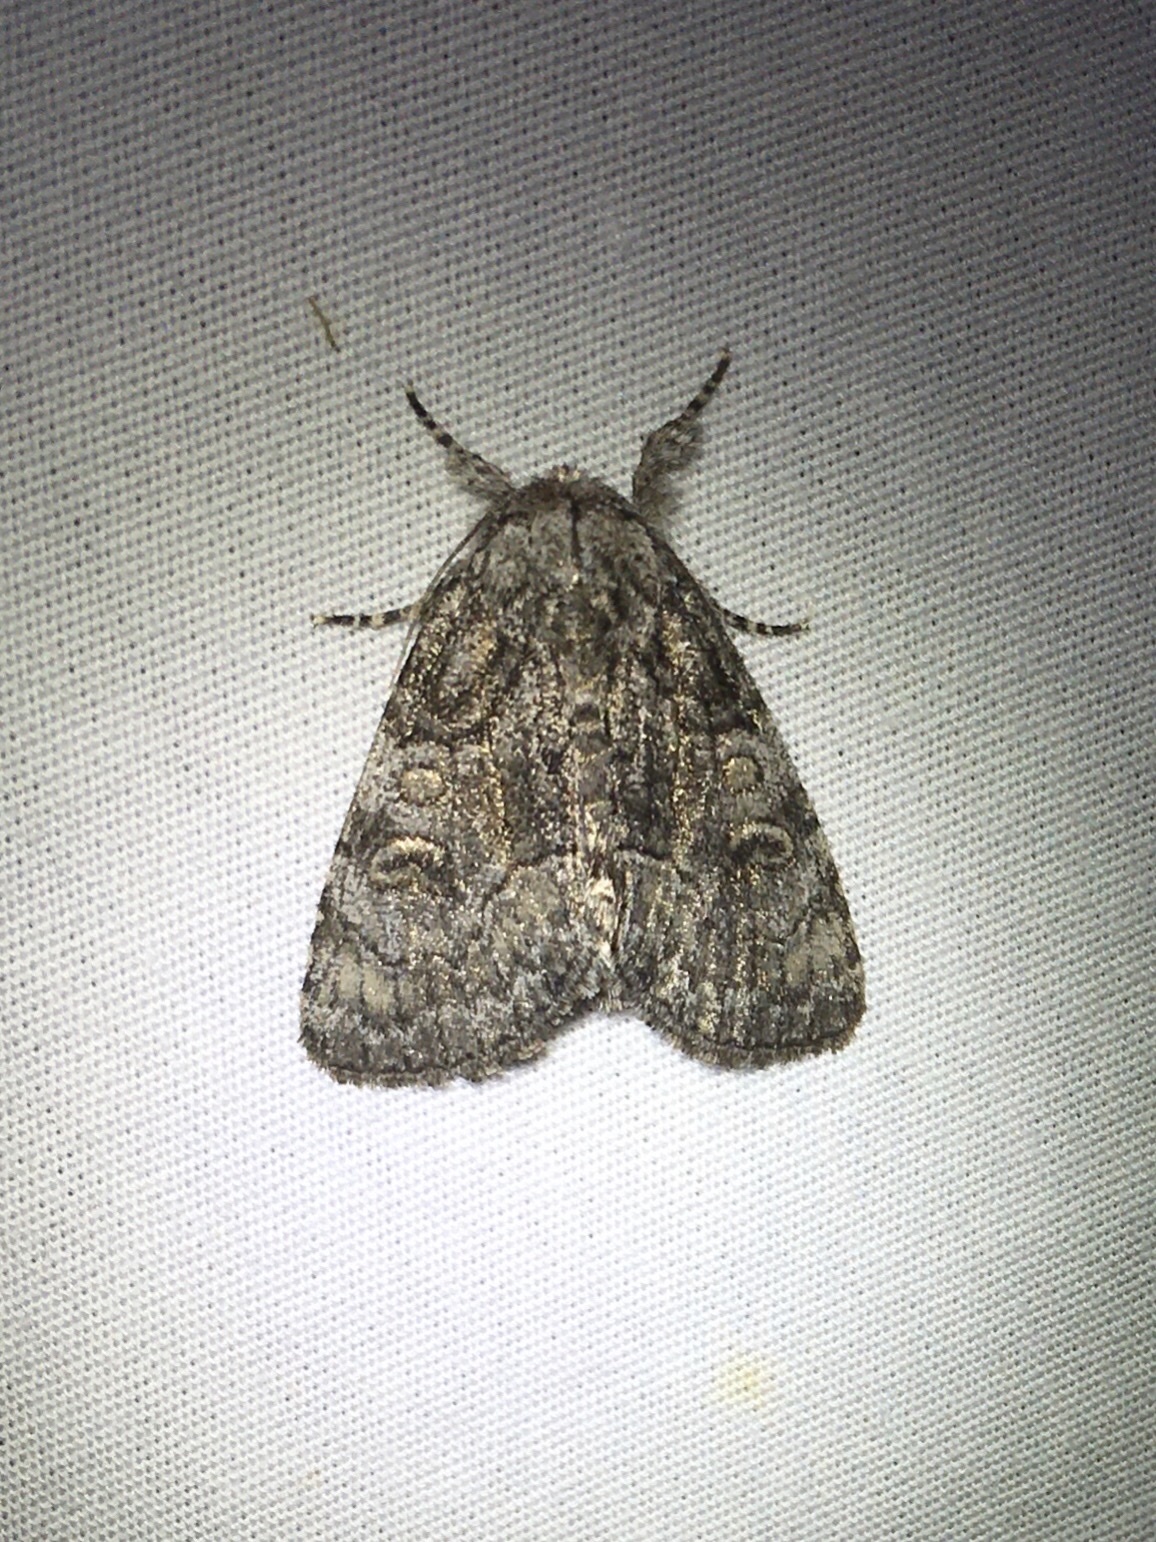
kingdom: Animalia
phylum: Arthropoda
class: Insecta
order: Lepidoptera
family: Noctuidae
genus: Raphia
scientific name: Raphia frater
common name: Brother
